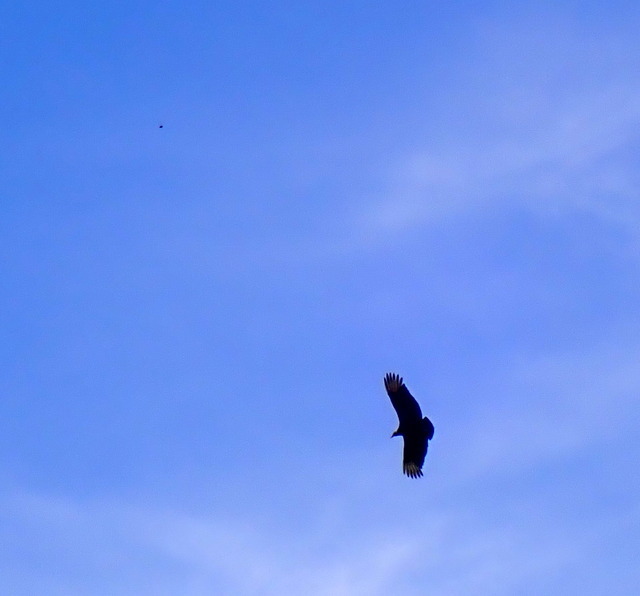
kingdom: Animalia
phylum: Chordata
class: Aves
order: Accipitriformes
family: Cathartidae
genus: Coragyps
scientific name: Coragyps atratus
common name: Black vulture
